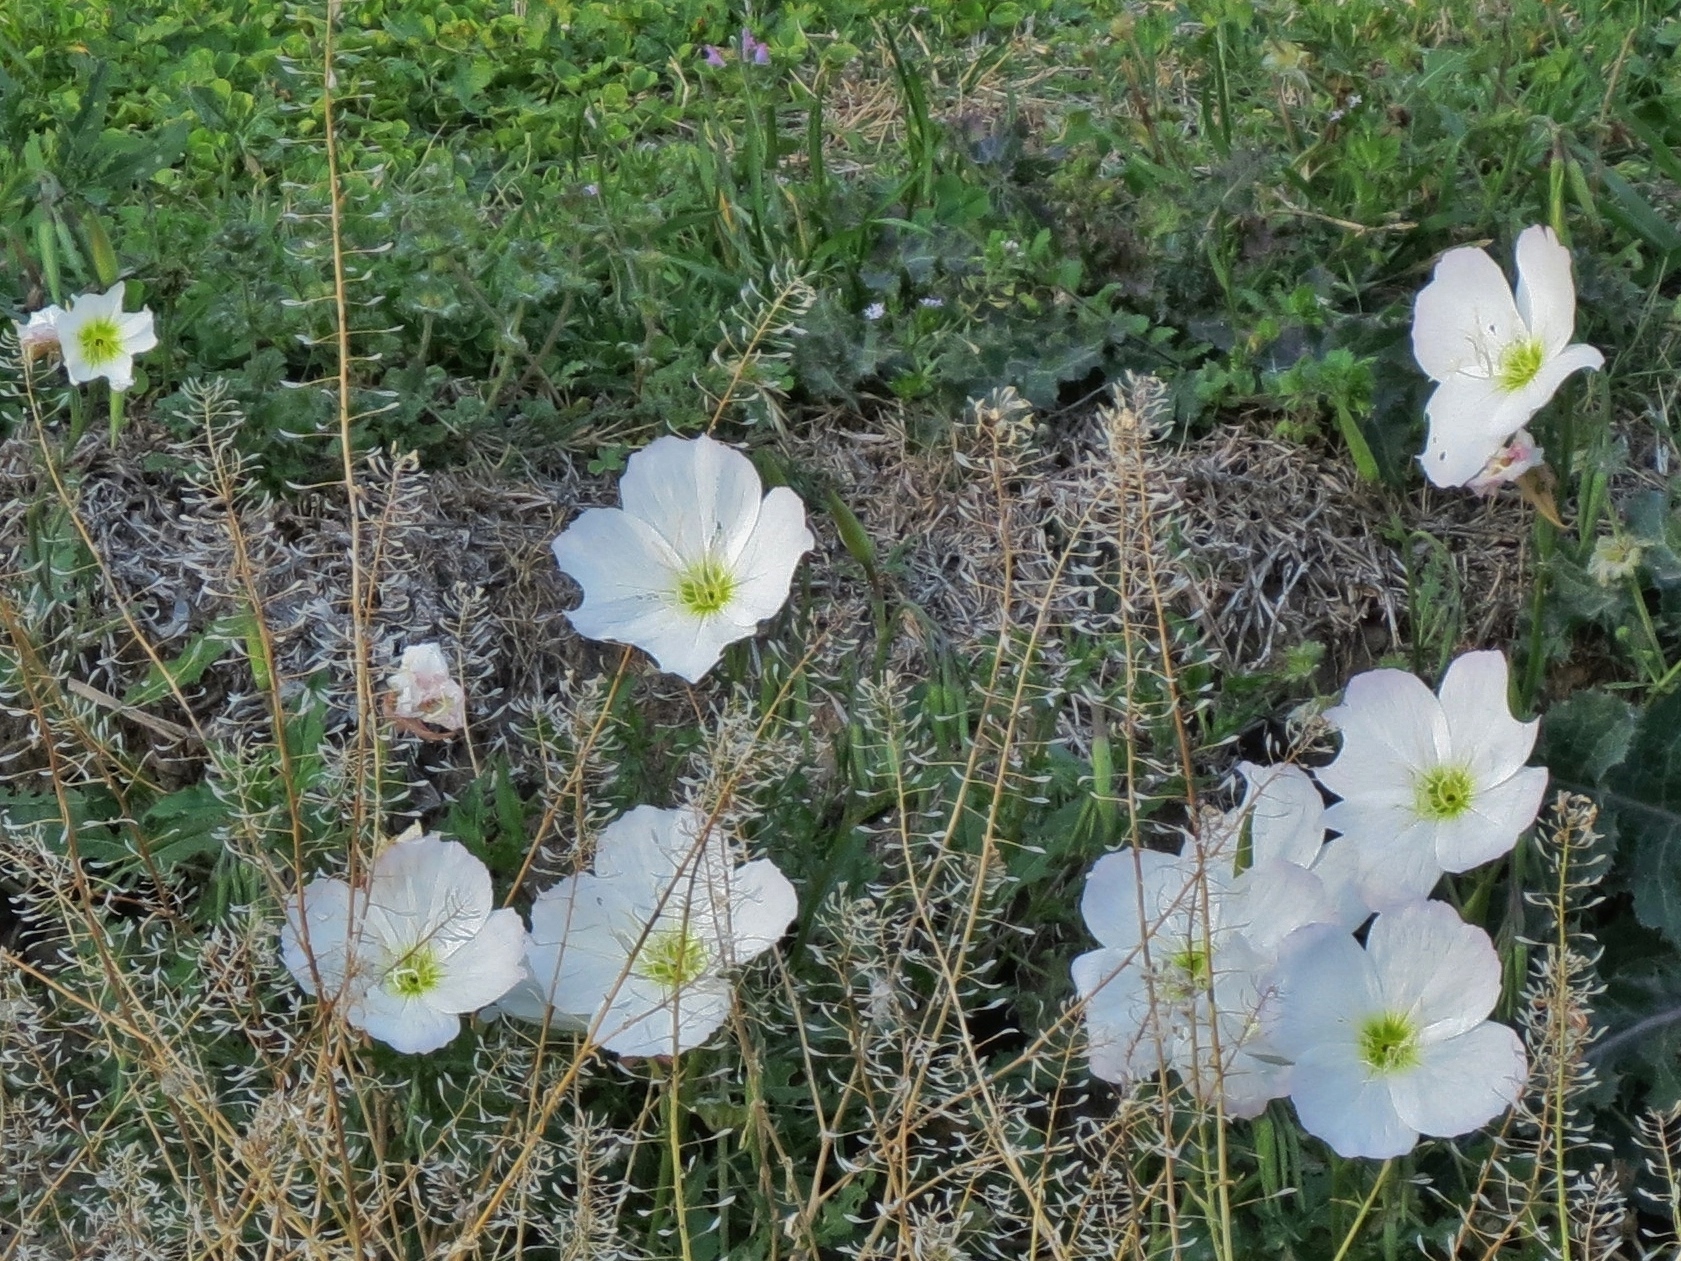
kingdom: Plantae
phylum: Tracheophyta
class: Magnoliopsida
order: Myrtales
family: Onagraceae
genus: Oenothera
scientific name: Oenothera speciosa
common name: White evening-primrose
